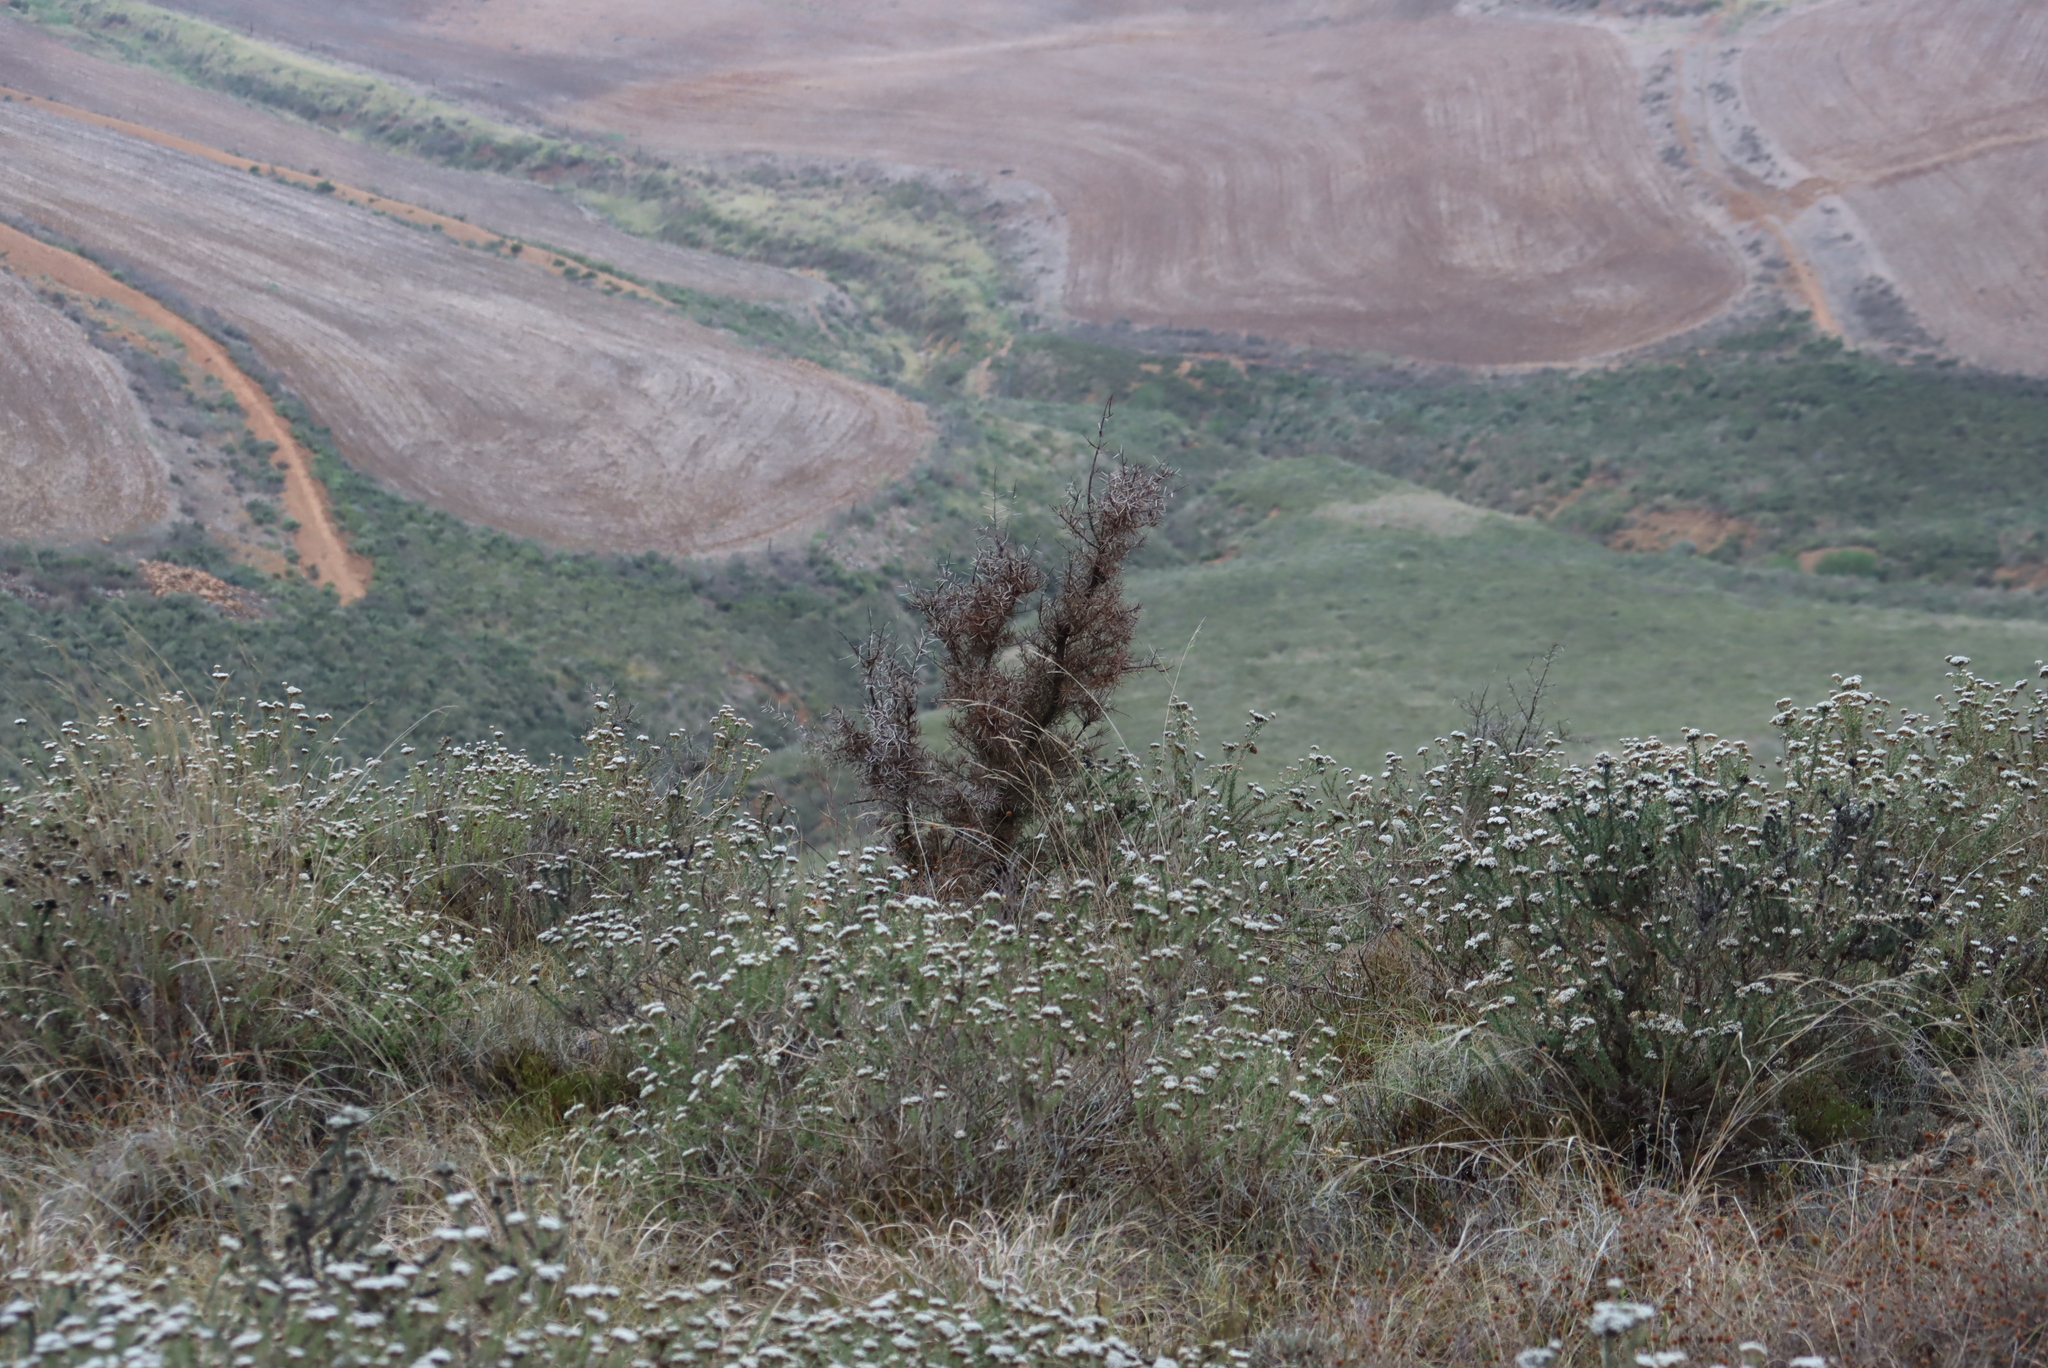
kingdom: Plantae
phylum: Tracheophyta
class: Magnoliopsida
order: Proteales
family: Proteaceae
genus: Hakea
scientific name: Hakea sericea
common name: Needle bush
